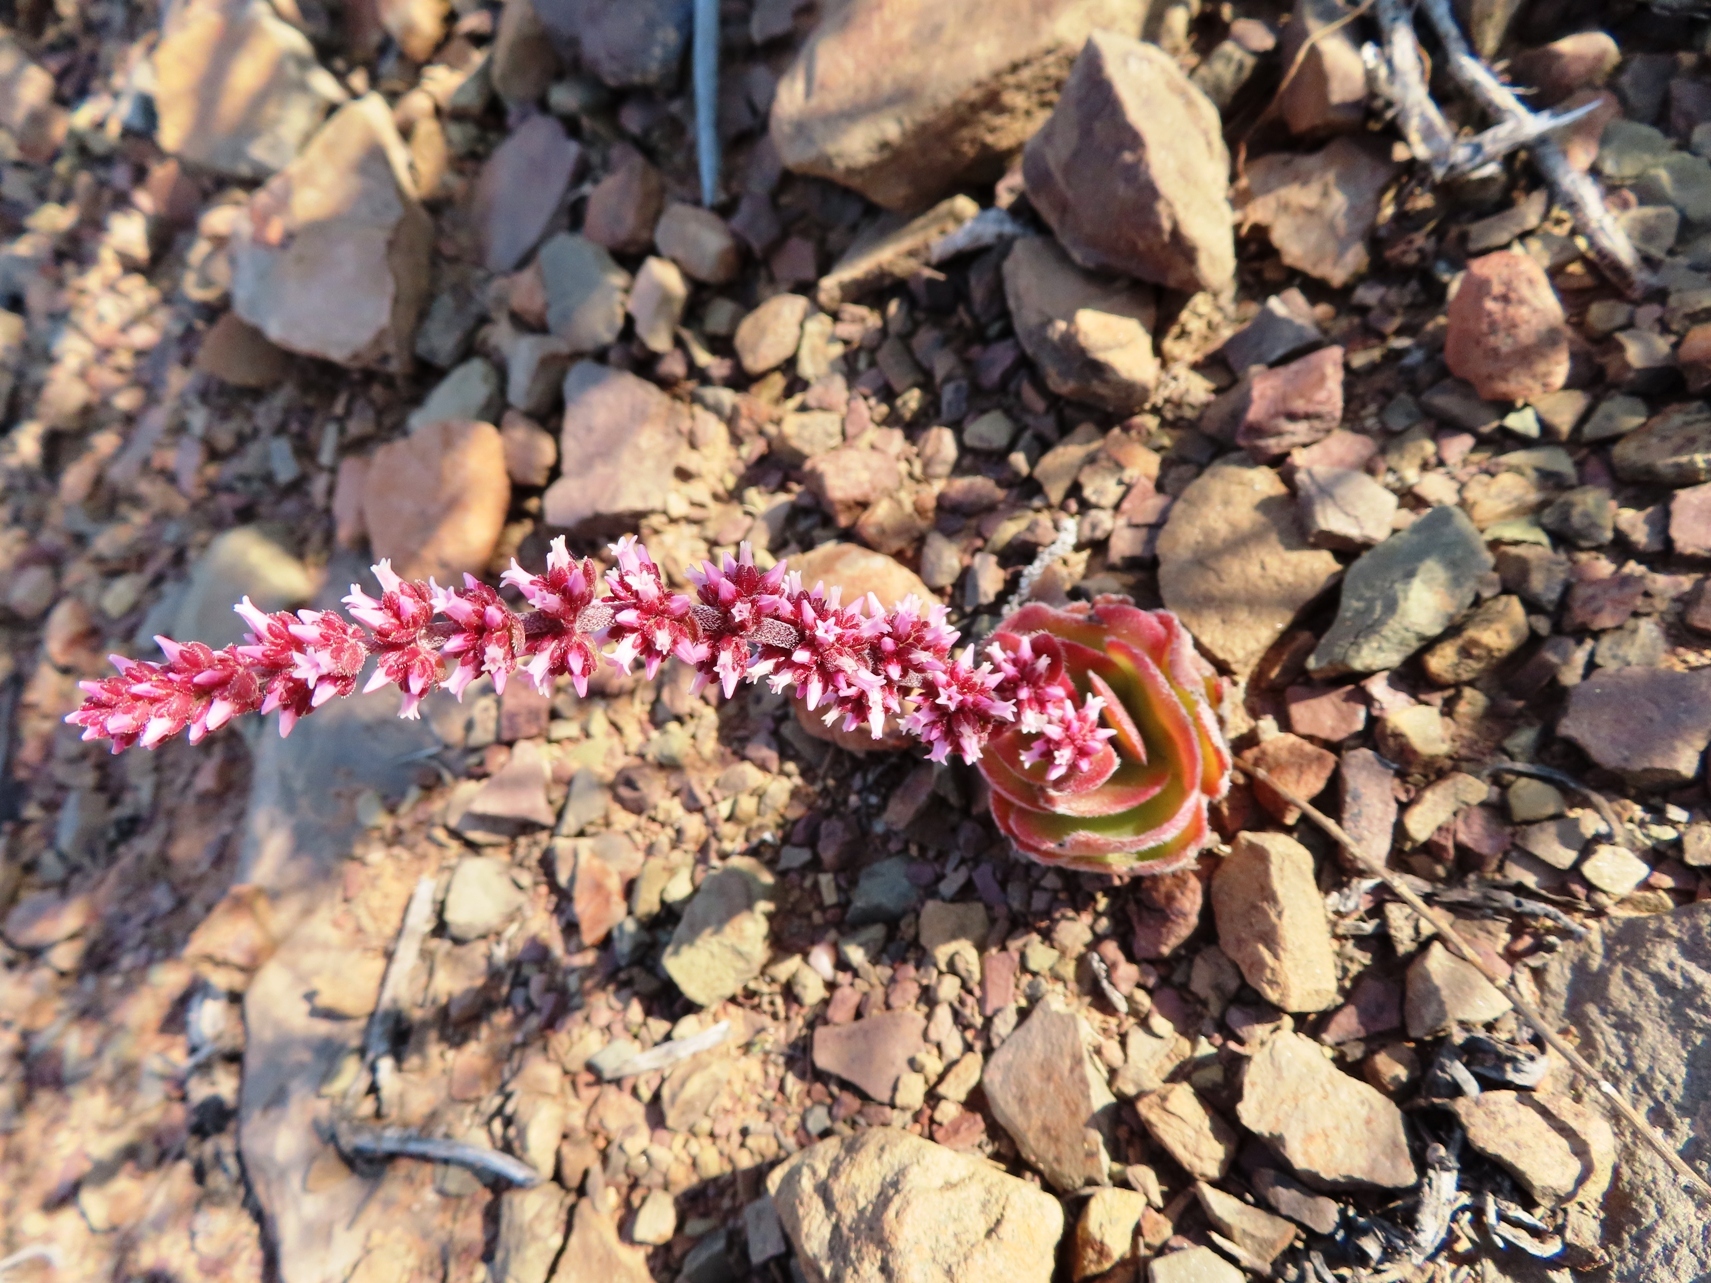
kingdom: Plantae
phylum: Tracheophyta
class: Magnoliopsida
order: Saxifragales
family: Crassulaceae
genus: Crassula
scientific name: Crassula barbata
